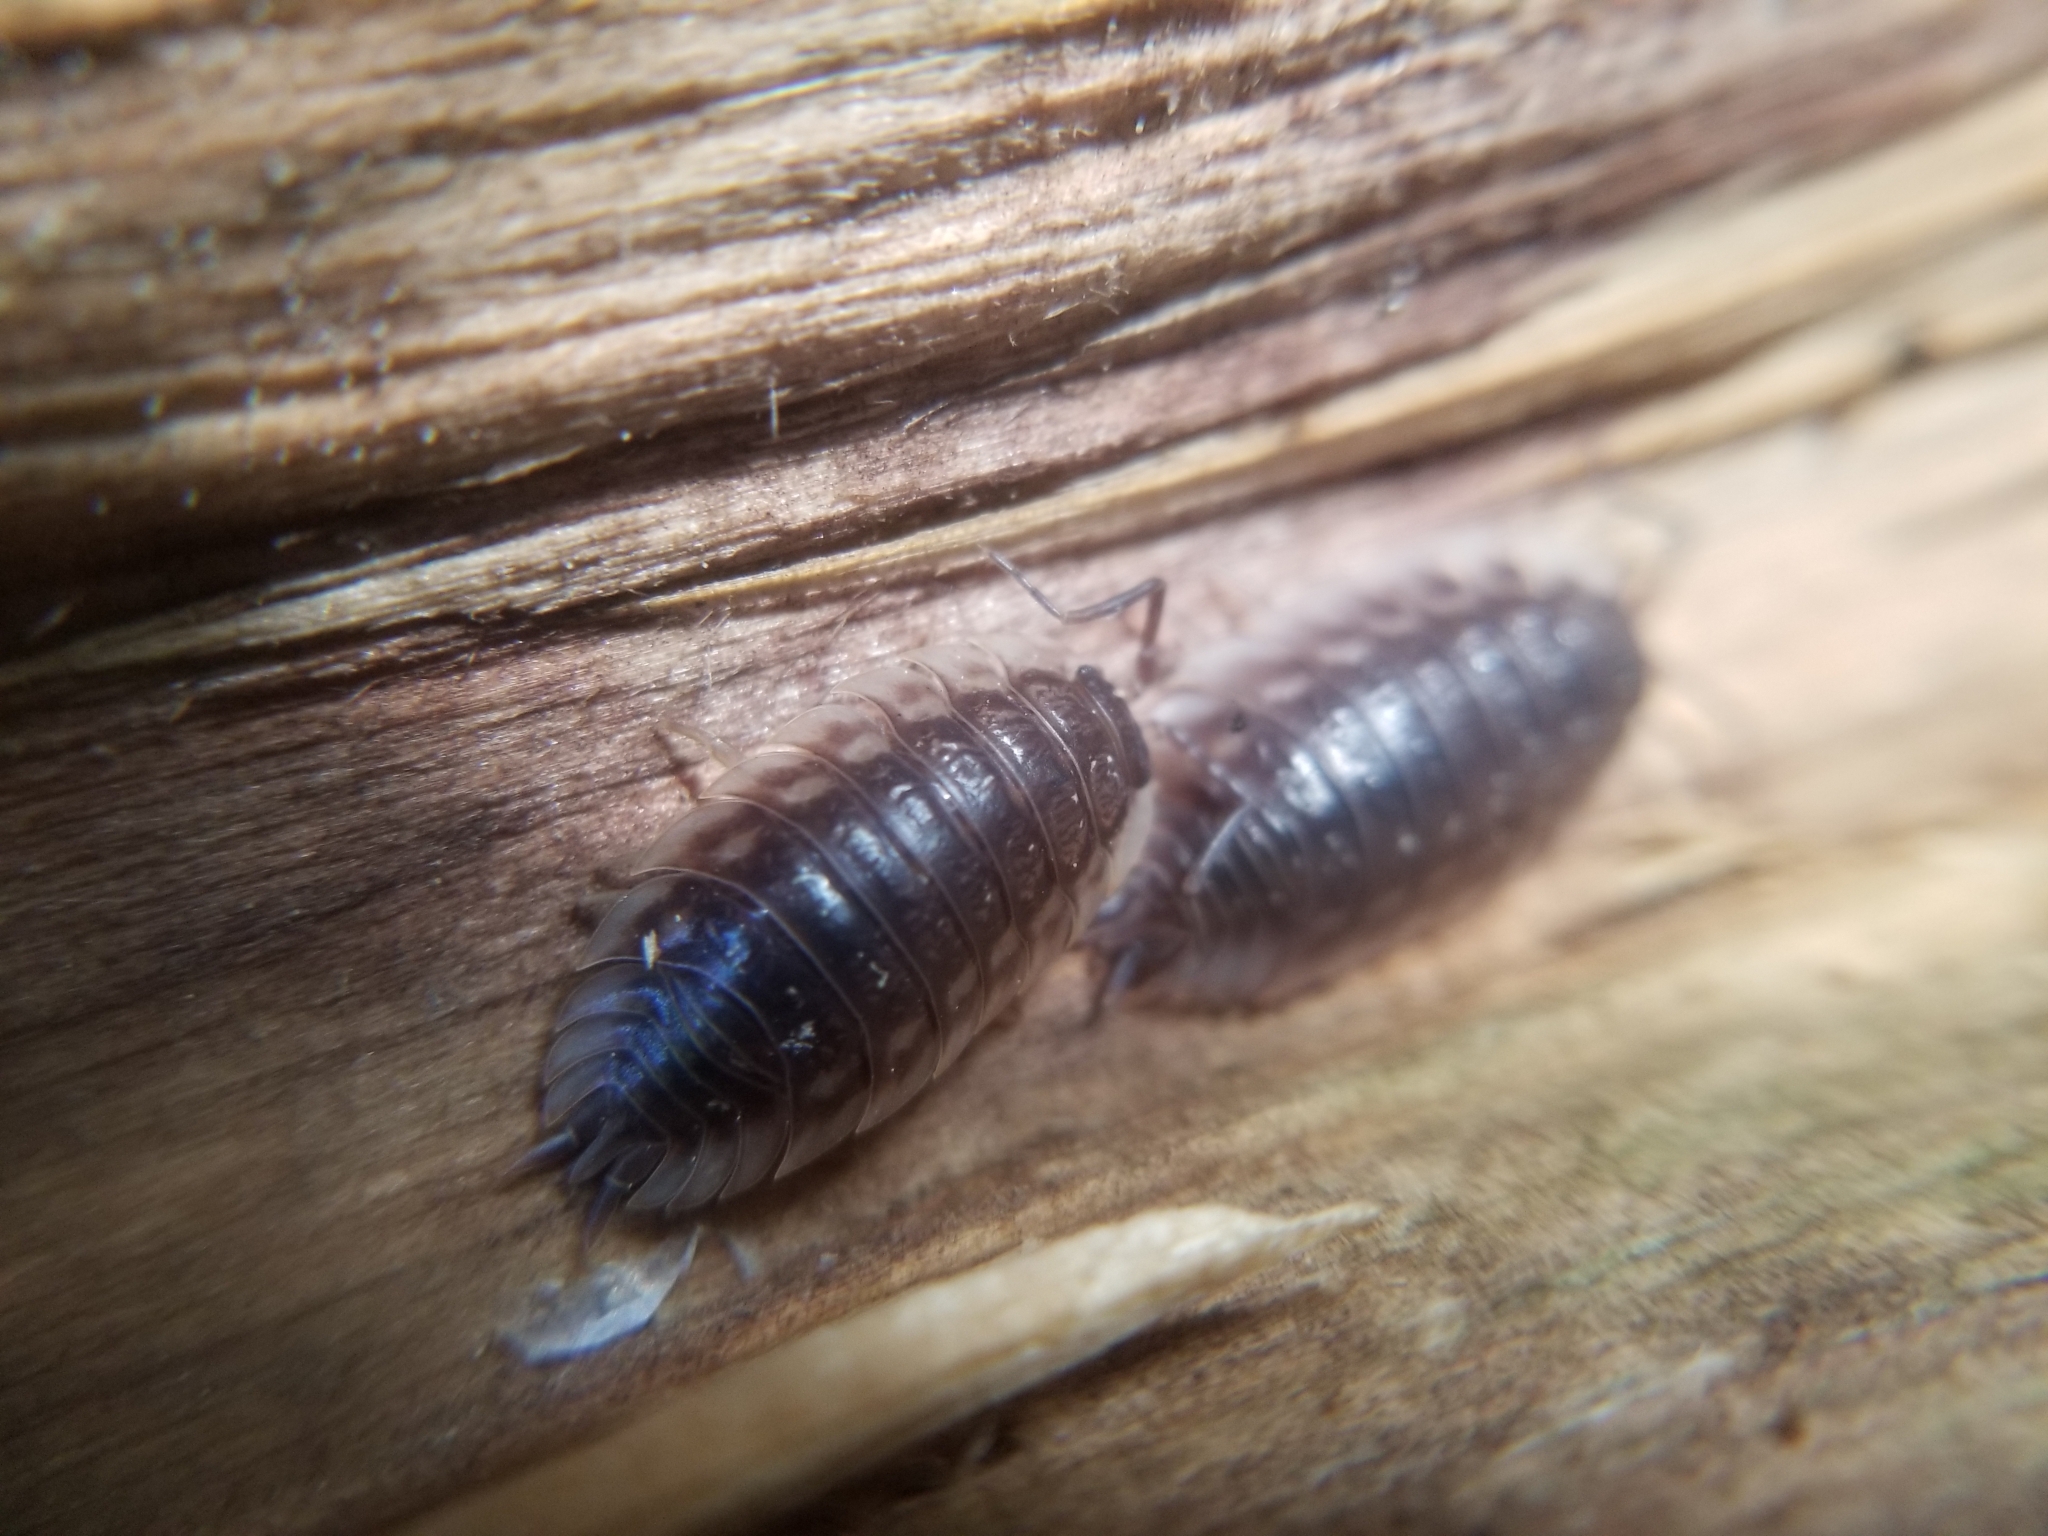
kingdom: Animalia
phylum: Arthropoda
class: Malacostraca
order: Isopoda
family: Oniscidae
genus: Oniscus
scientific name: Oniscus asellus
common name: Common shiny woodlouse
